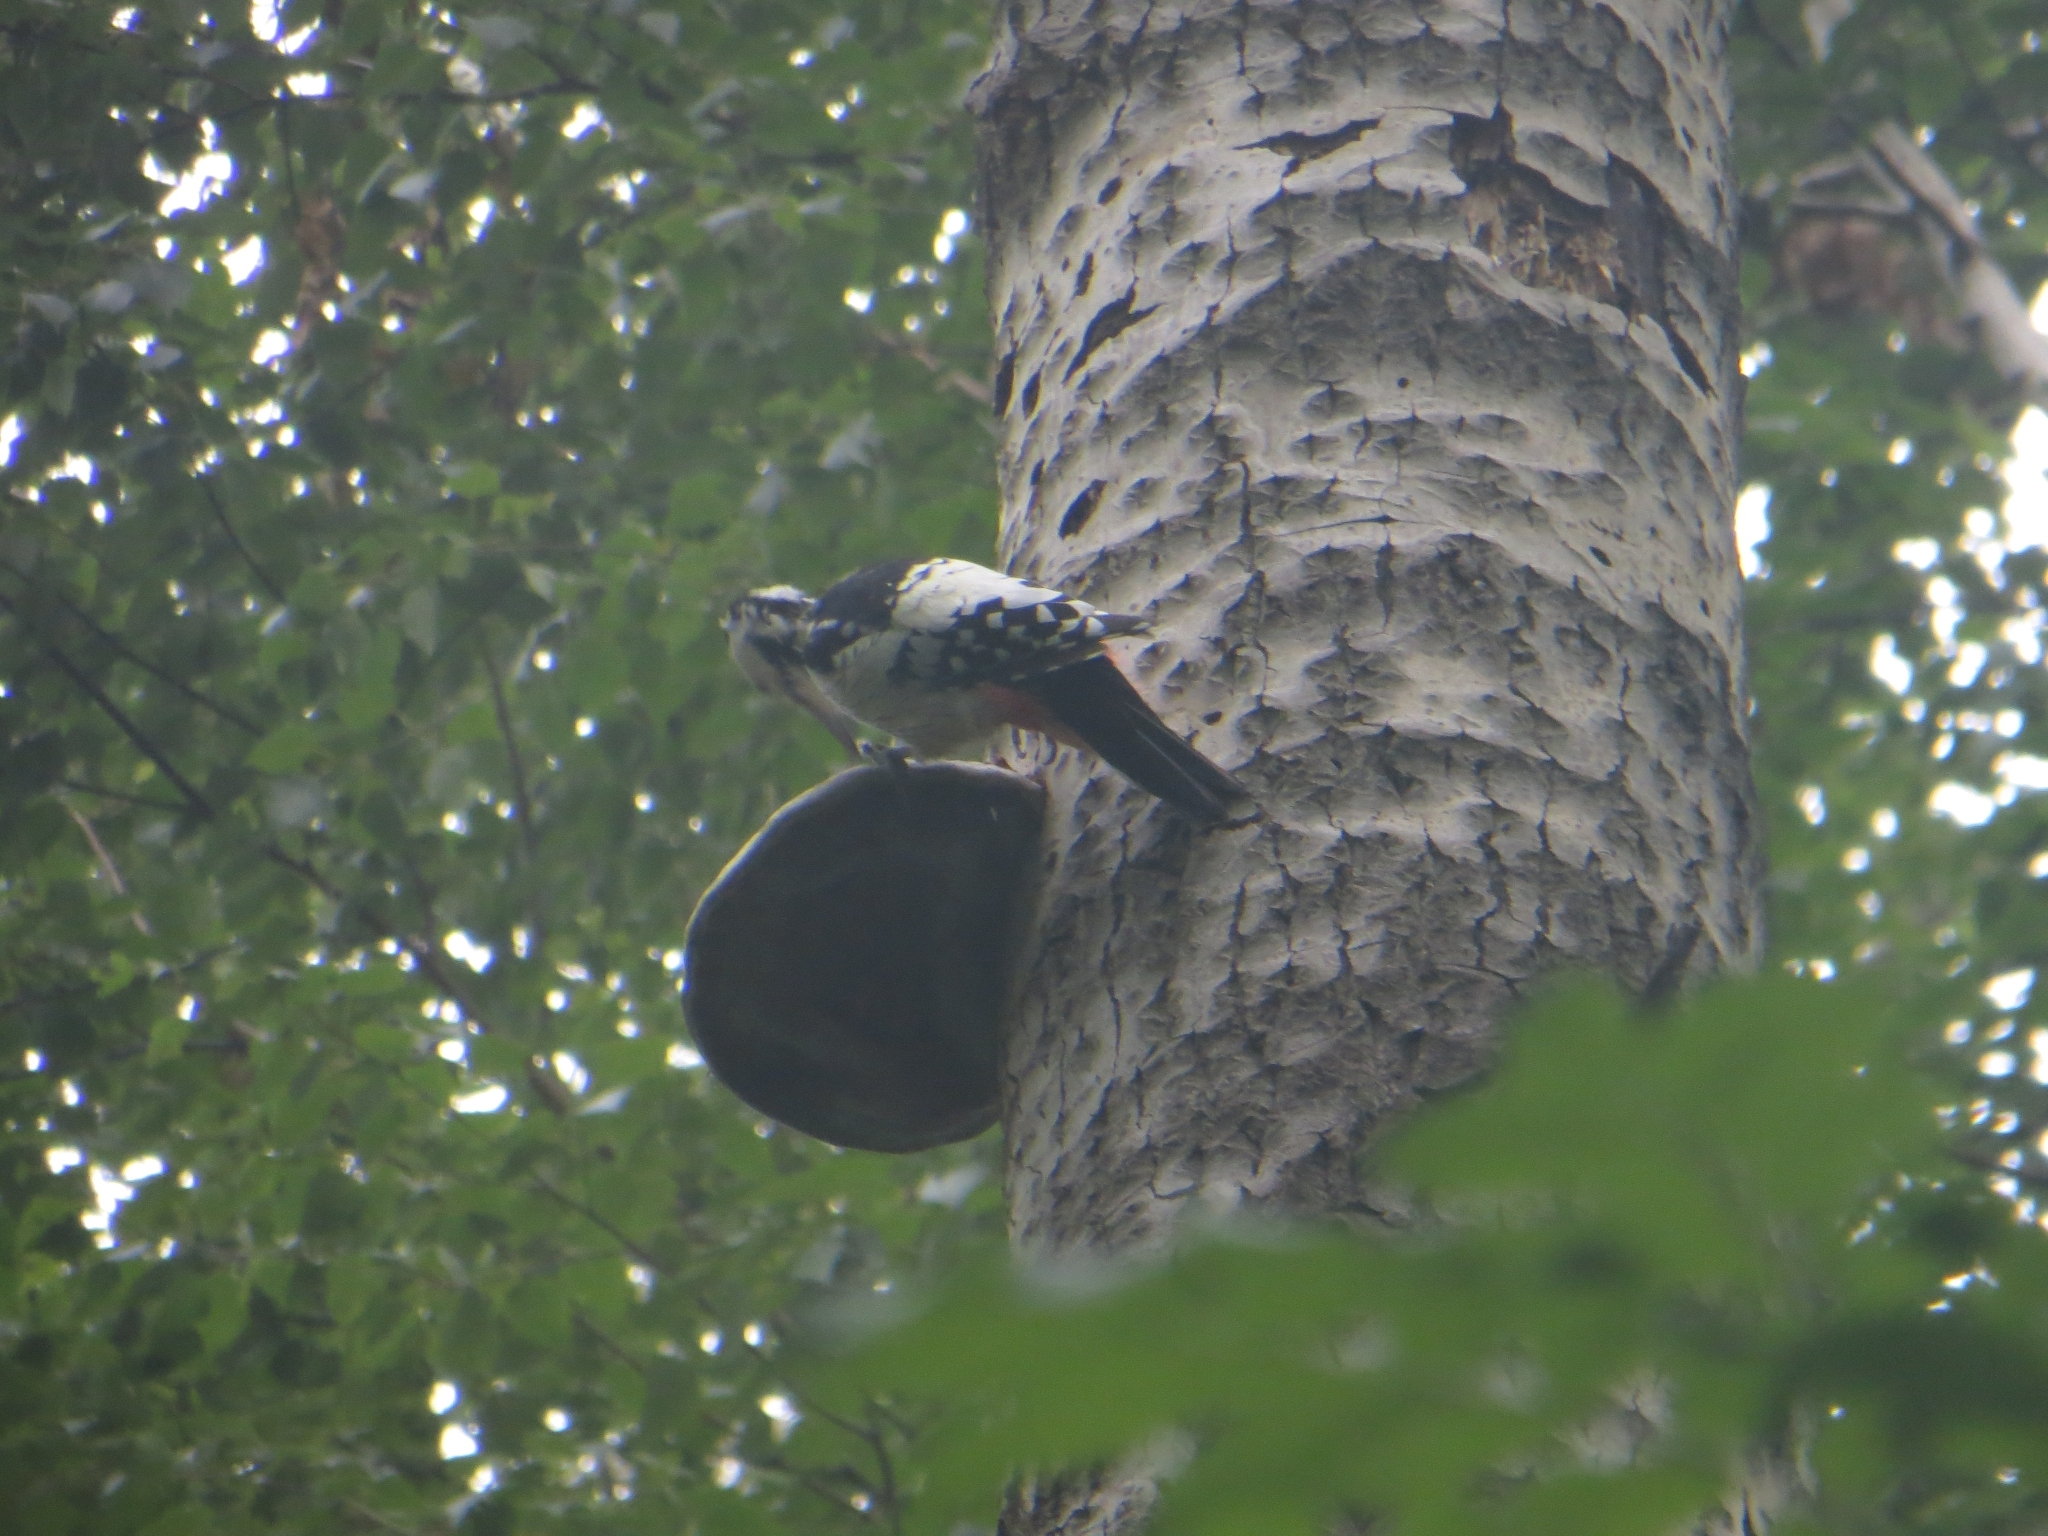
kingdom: Animalia
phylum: Chordata
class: Aves
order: Piciformes
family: Picidae
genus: Dendrocopos
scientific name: Dendrocopos leucotos
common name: White-backed woodpecker
